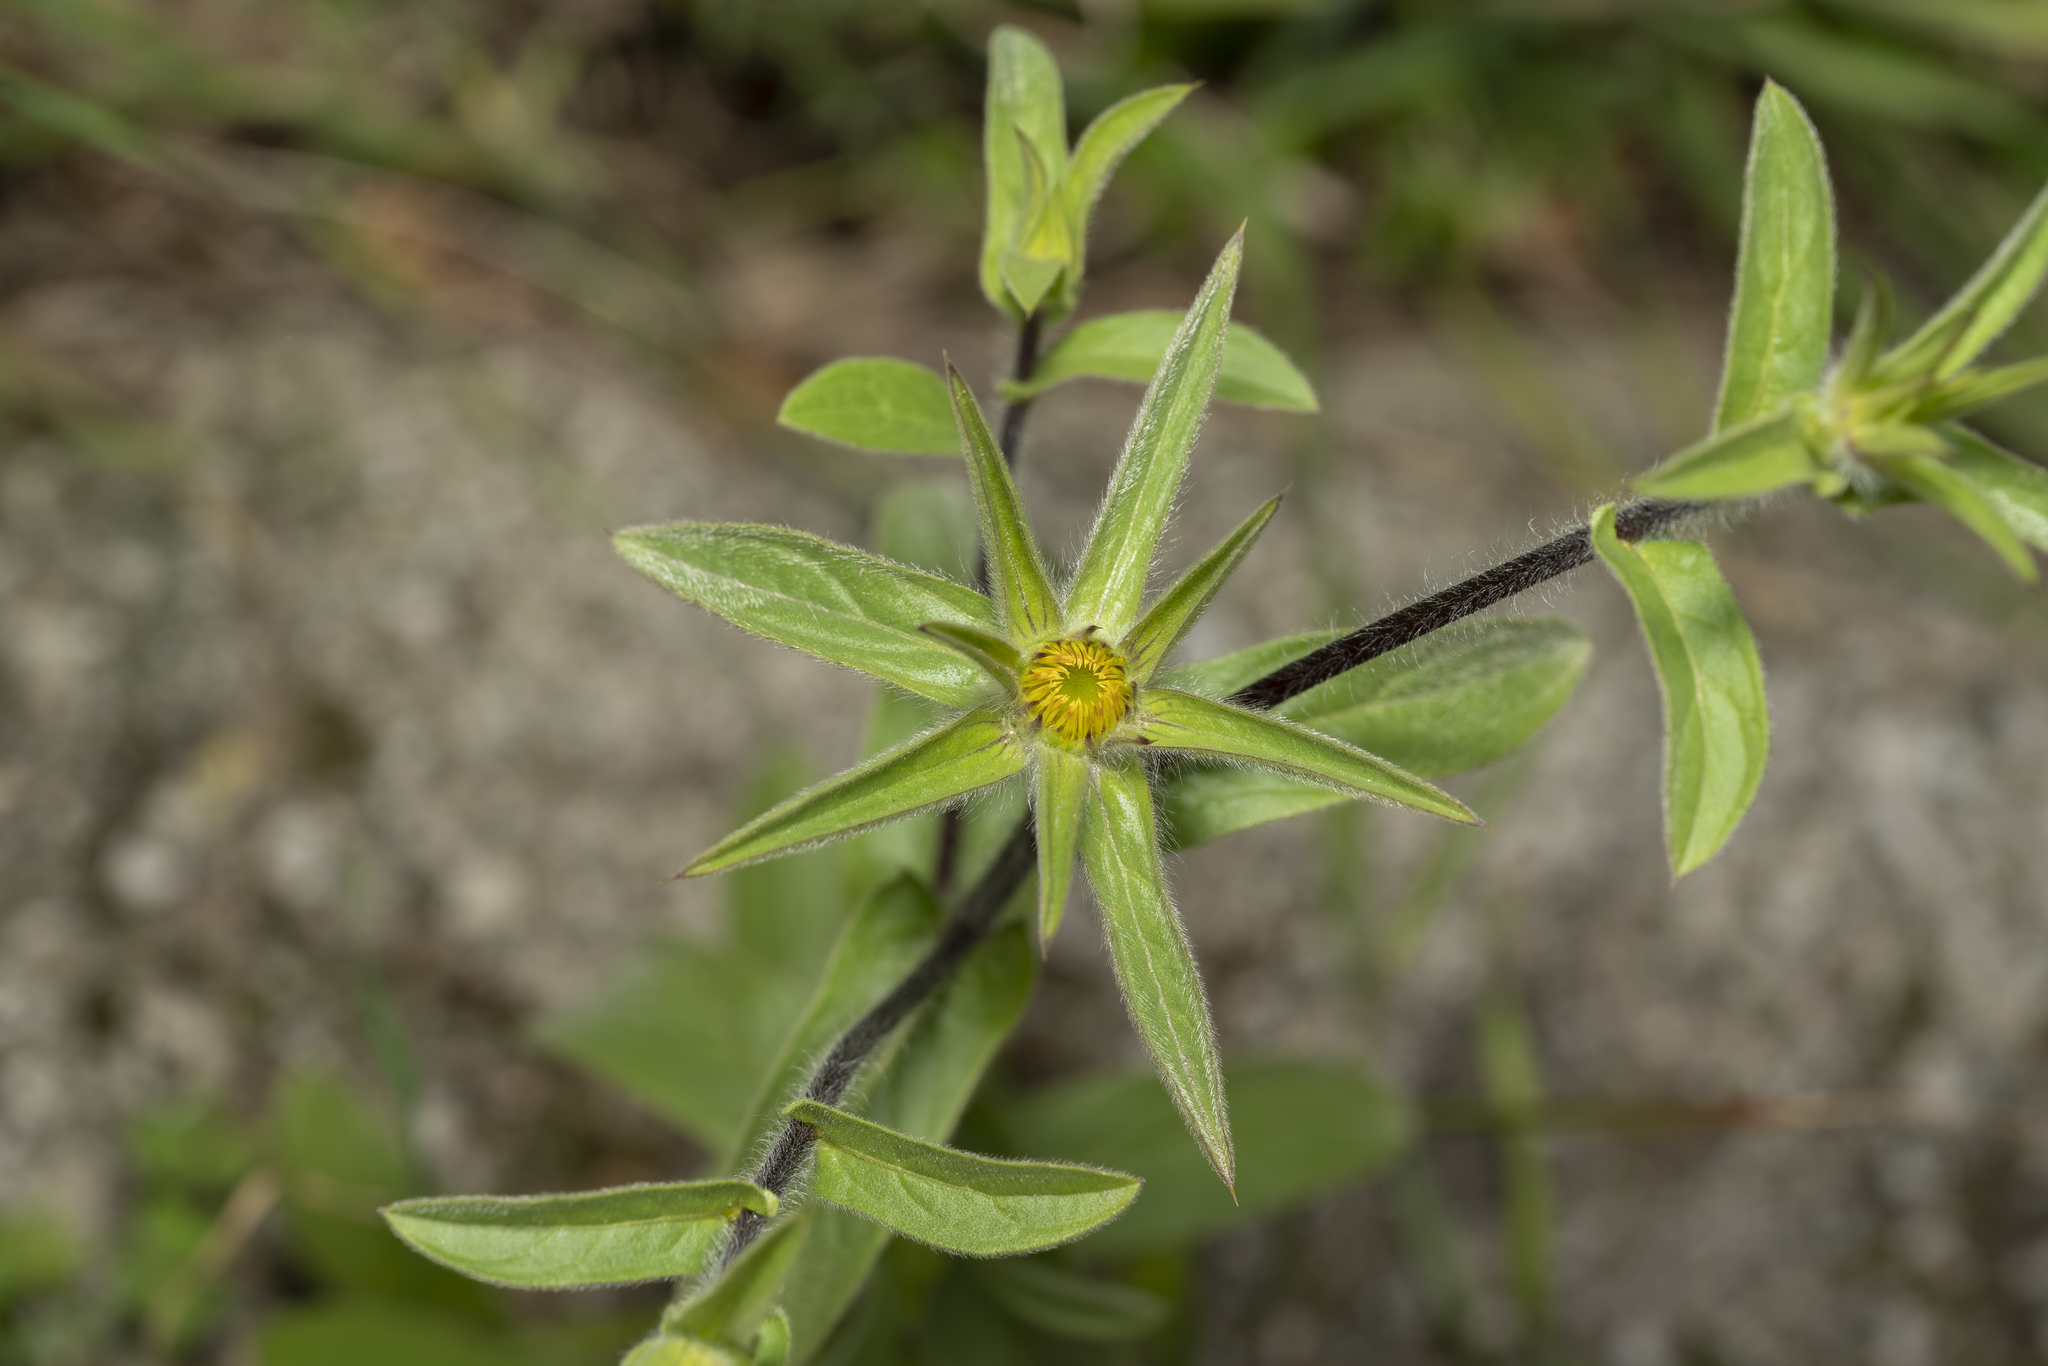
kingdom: Plantae
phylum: Tracheophyta
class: Magnoliopsida
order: Asterales
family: Asteraceae
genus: Pallenis
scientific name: Pallenis spinosa
